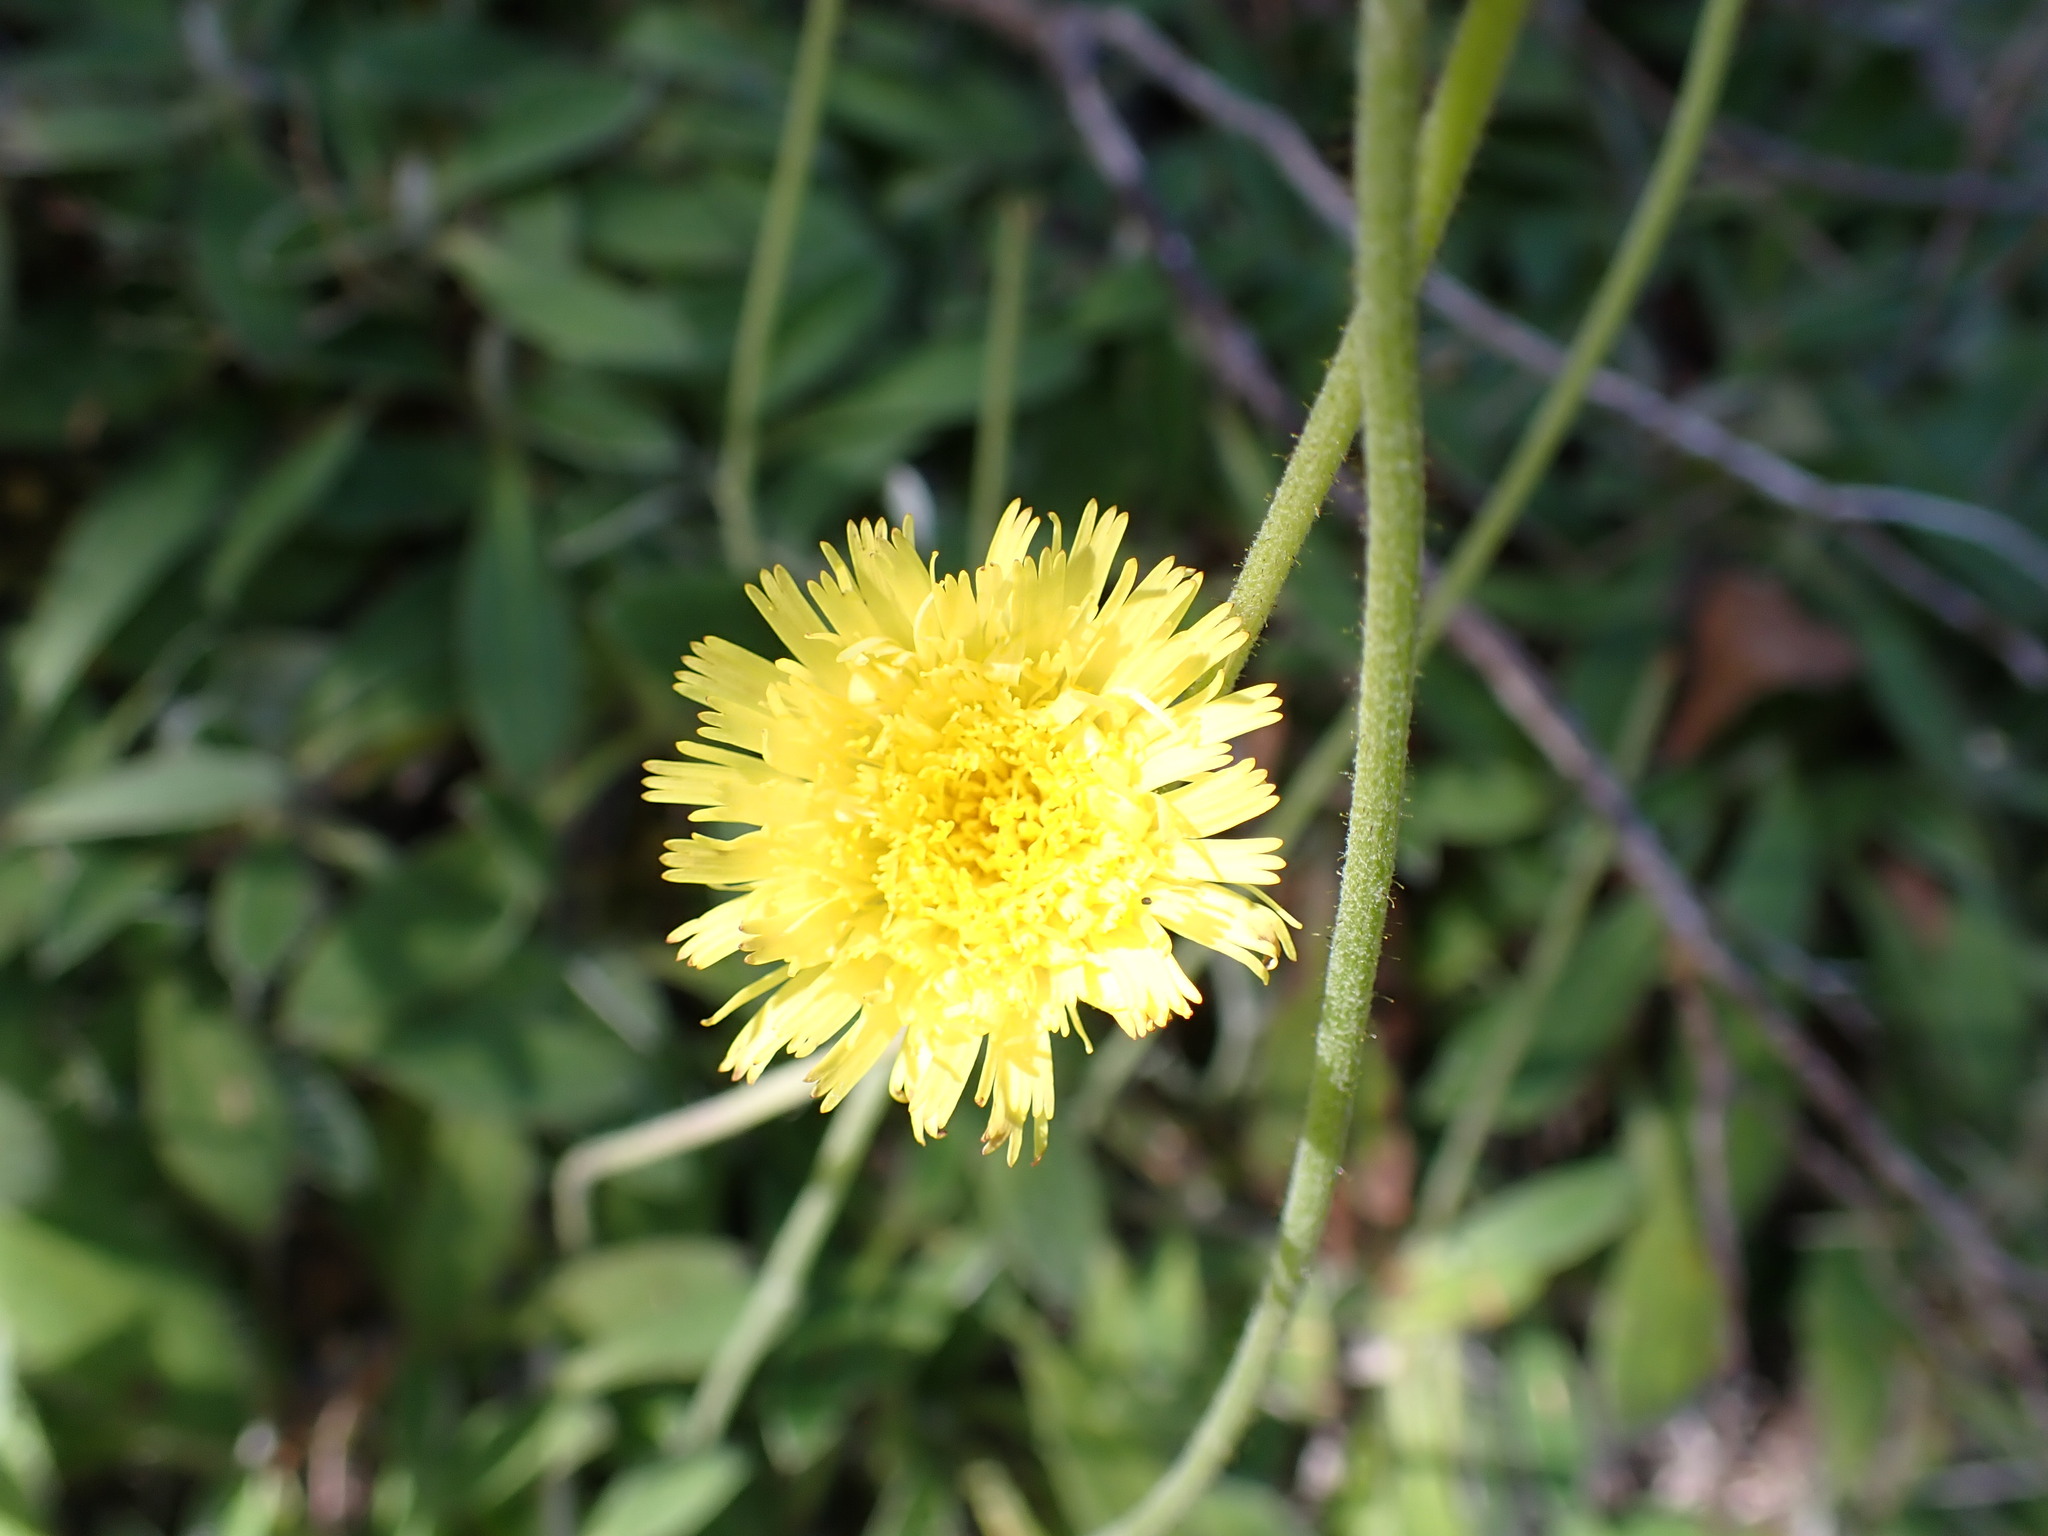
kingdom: Plantae
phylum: Tracheophyta
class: Magnoliopsida
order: Asterales
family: Asteraceae
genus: Pilosella
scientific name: Pilosella officinarum
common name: Mouse-ear hawkweed
